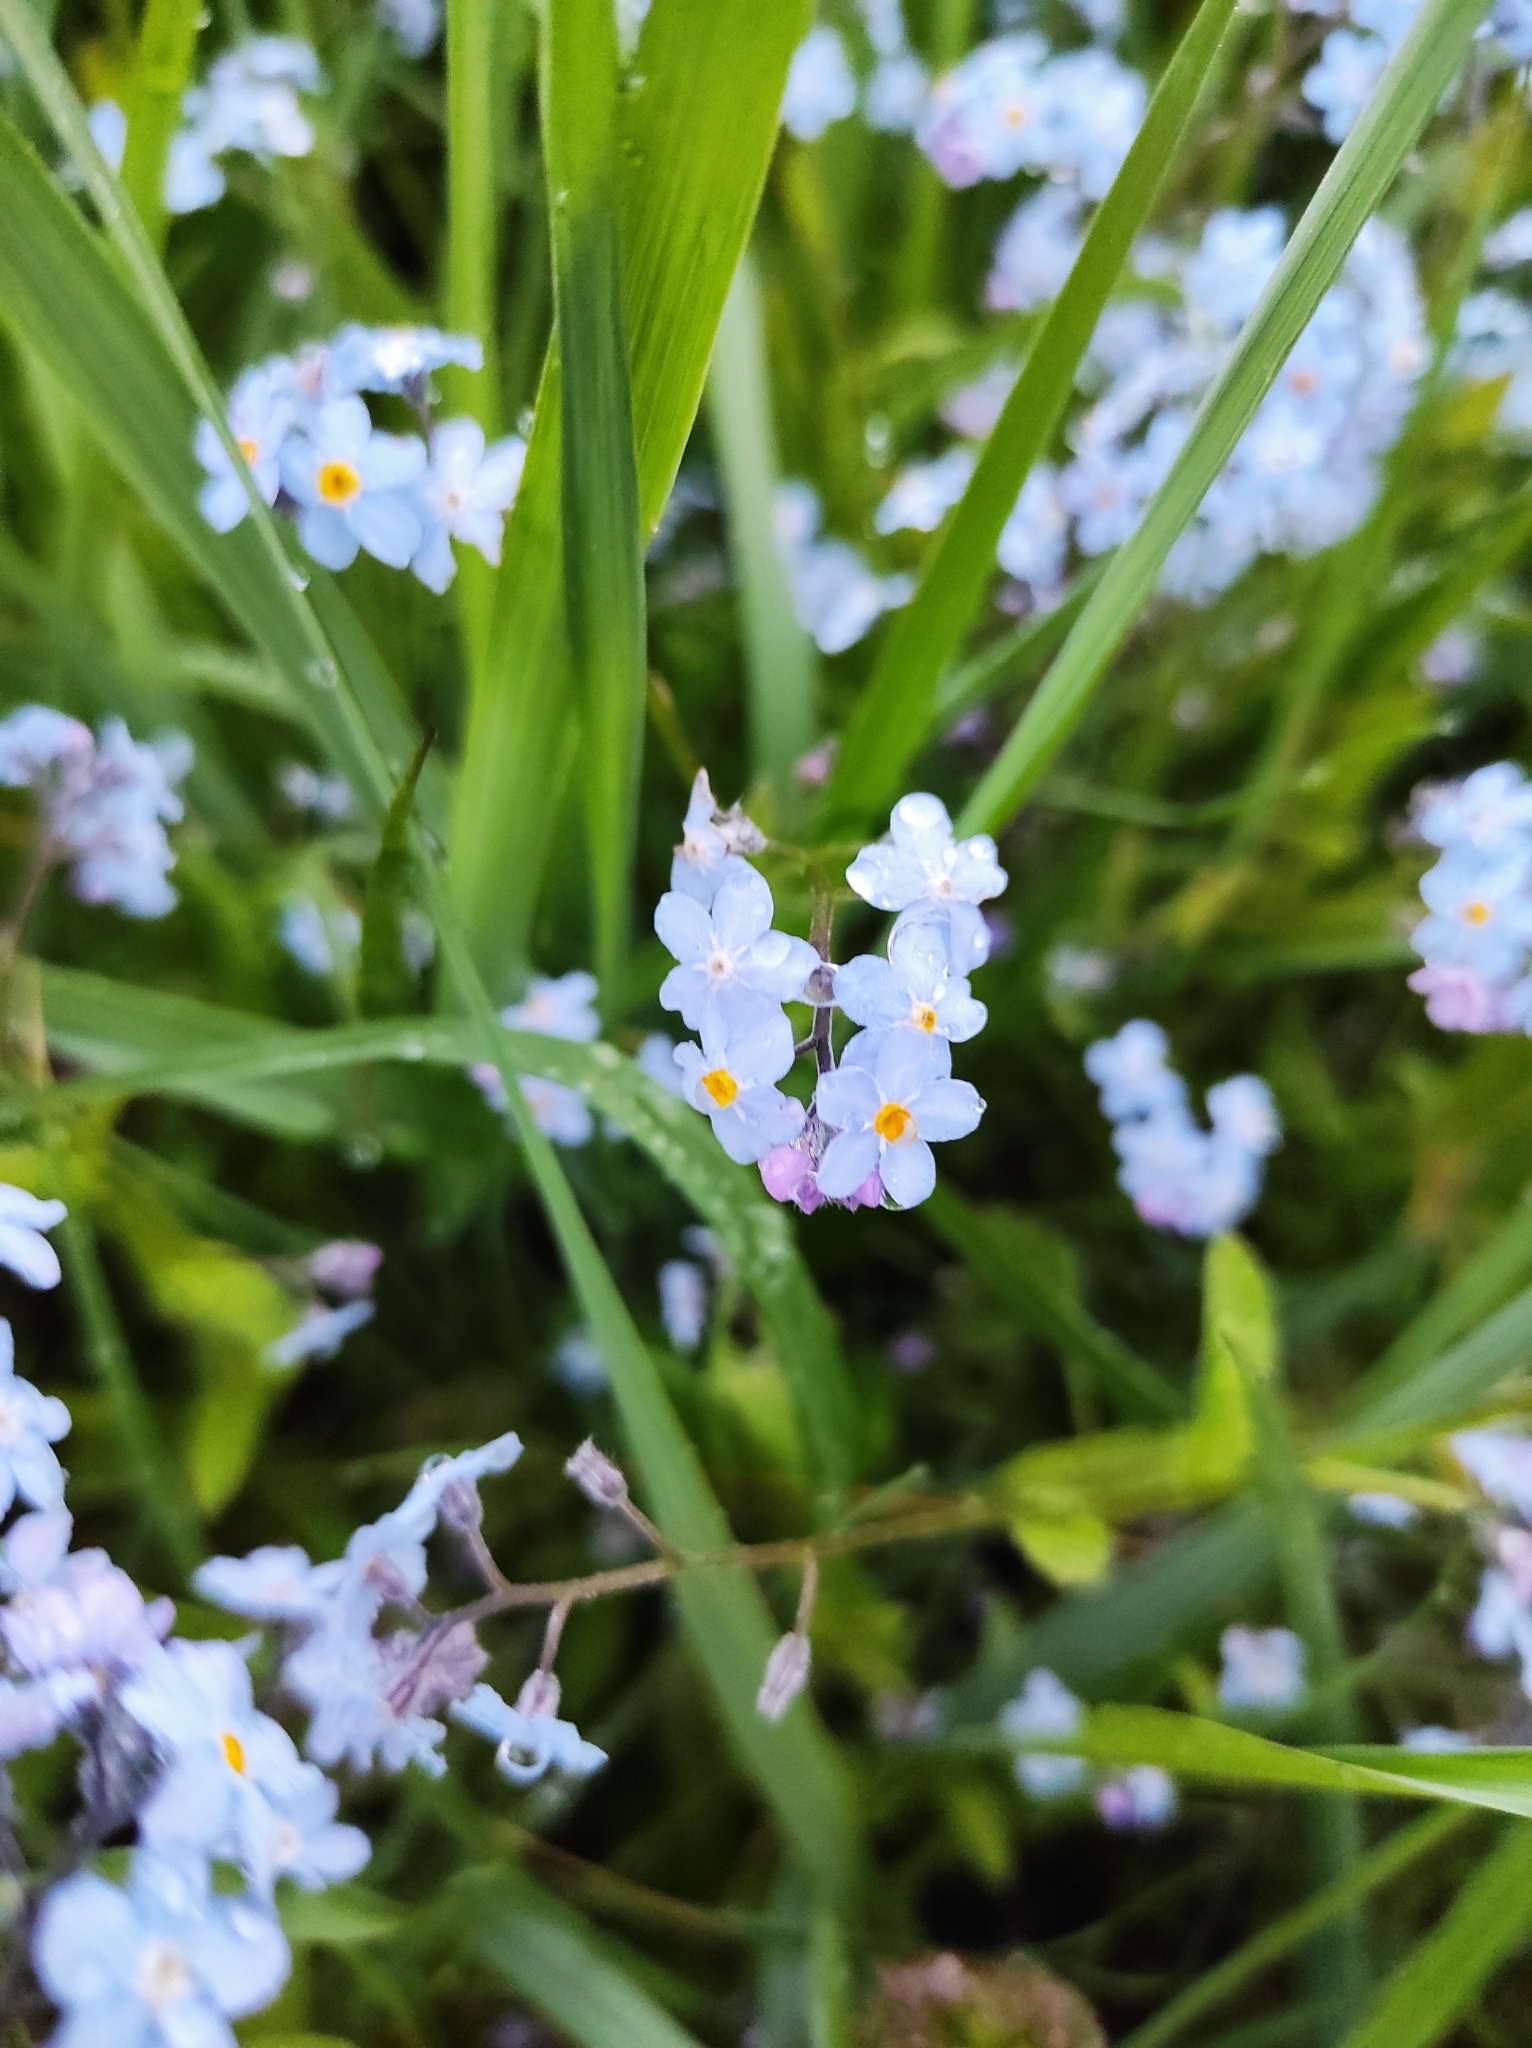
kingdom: Plantae
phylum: Tracheophyta
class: Magnoliopsida
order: Boraginales
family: Boraginaceae
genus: Myosotis
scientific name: Myosotis sylvatica
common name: Wood forget-me-not
